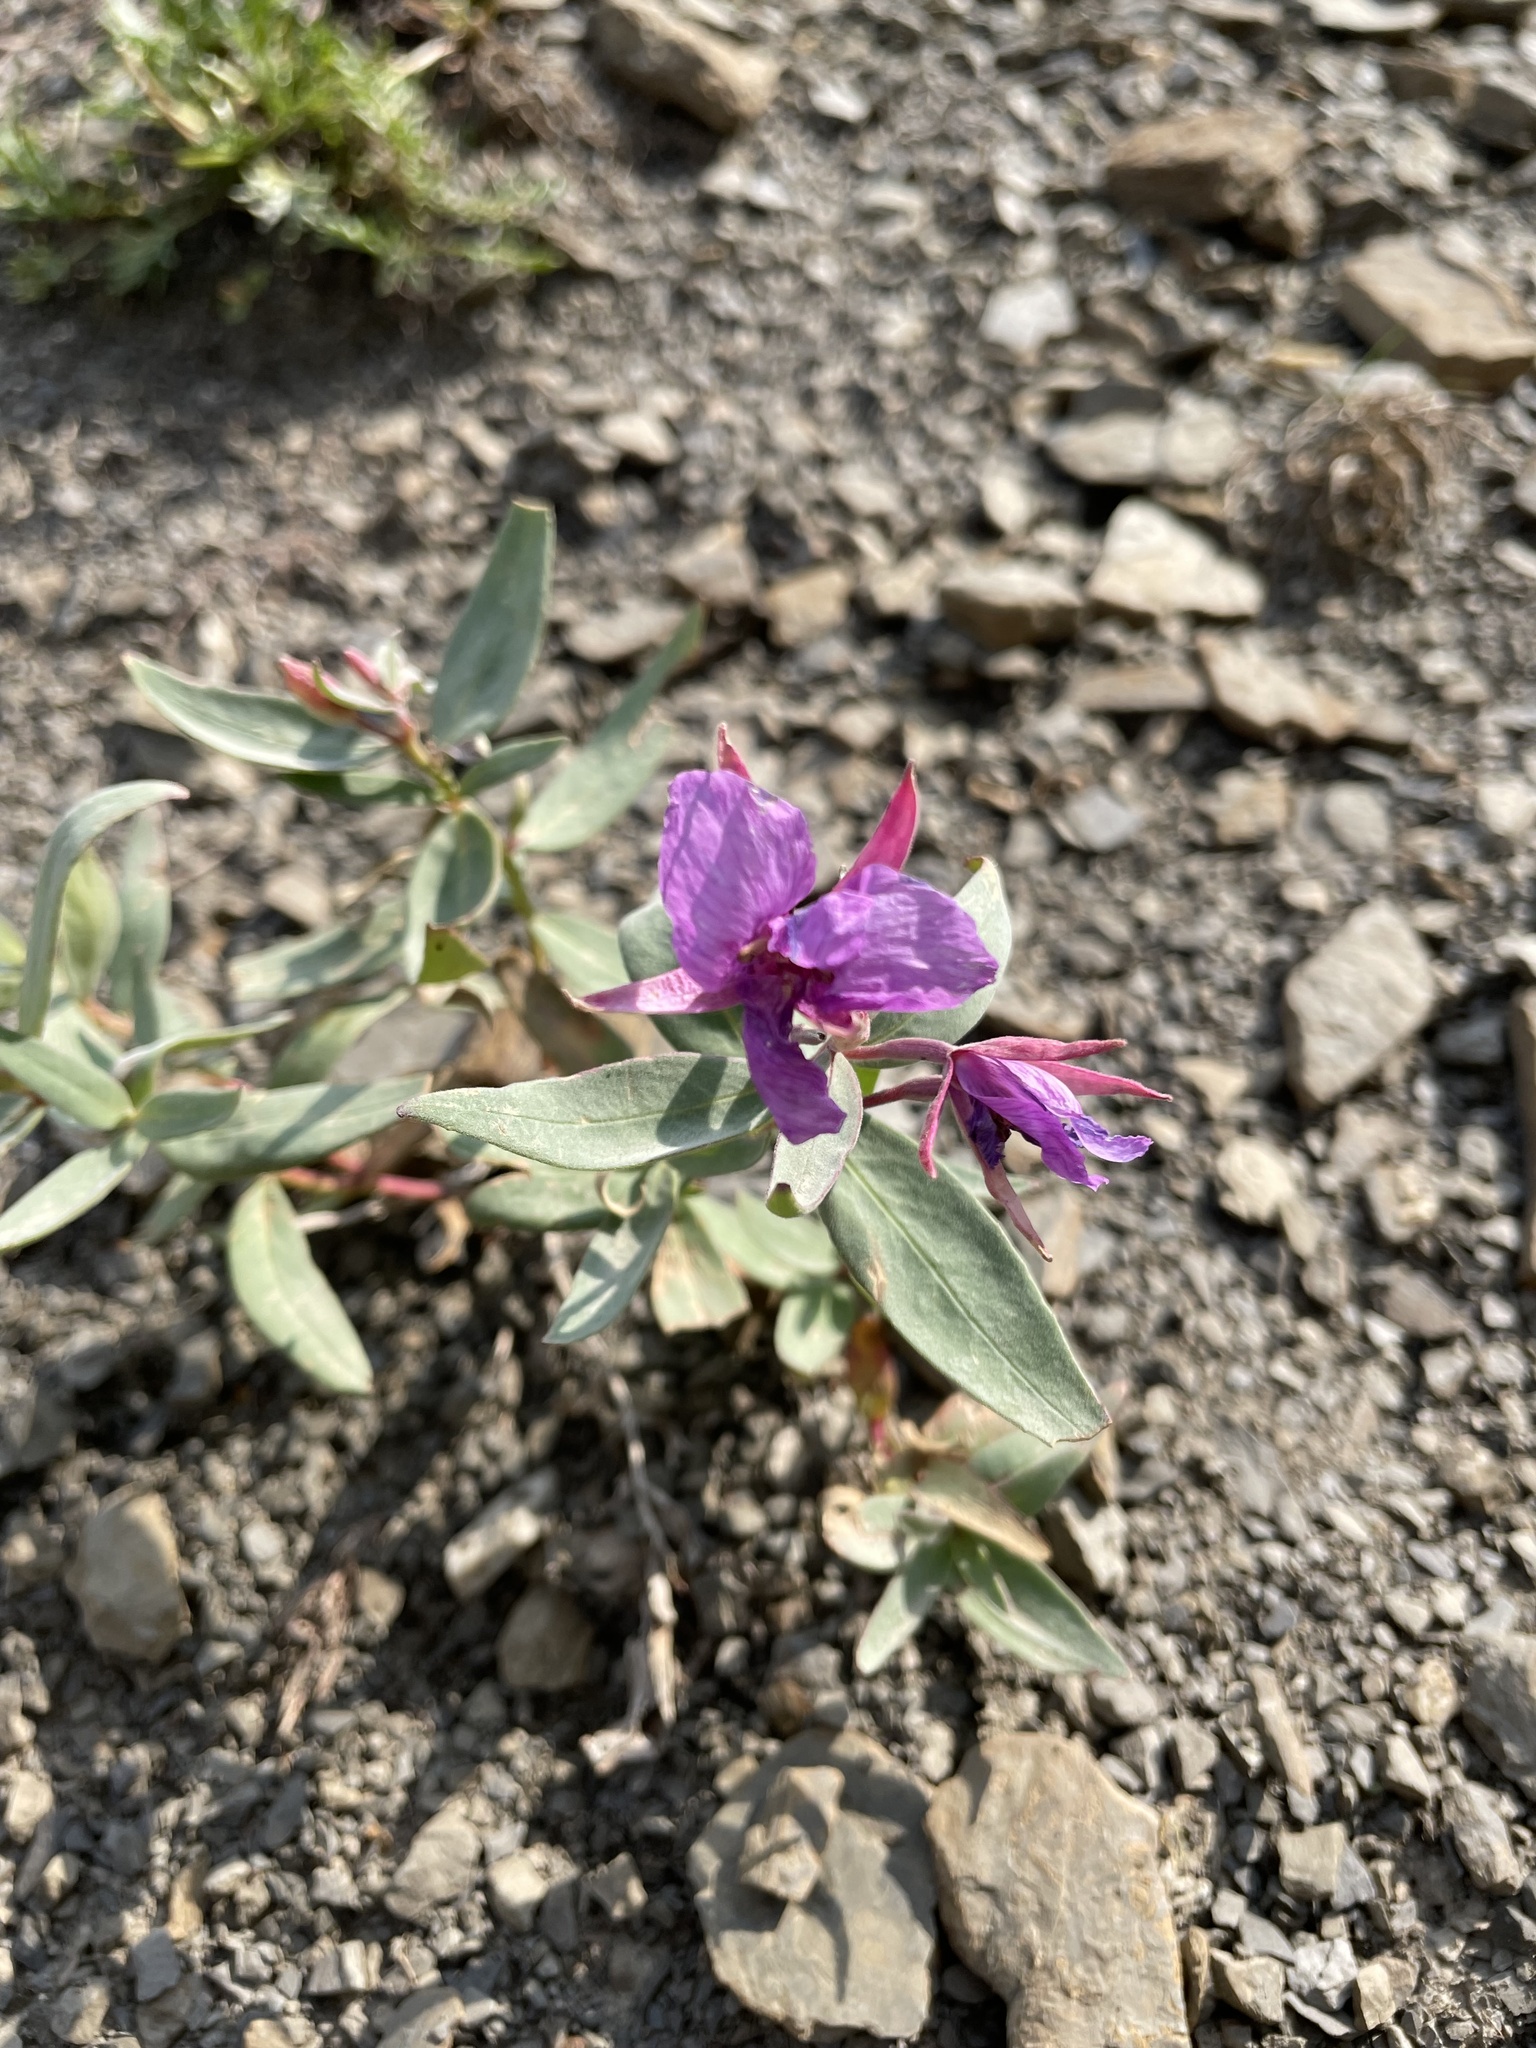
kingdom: Plantae
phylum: Tracheophyta
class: Magnoliopsida
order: Myrtales
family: Onagraceae
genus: Chamaenerion
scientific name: Chamaenerion latifolium
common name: Dwarf fireweed
